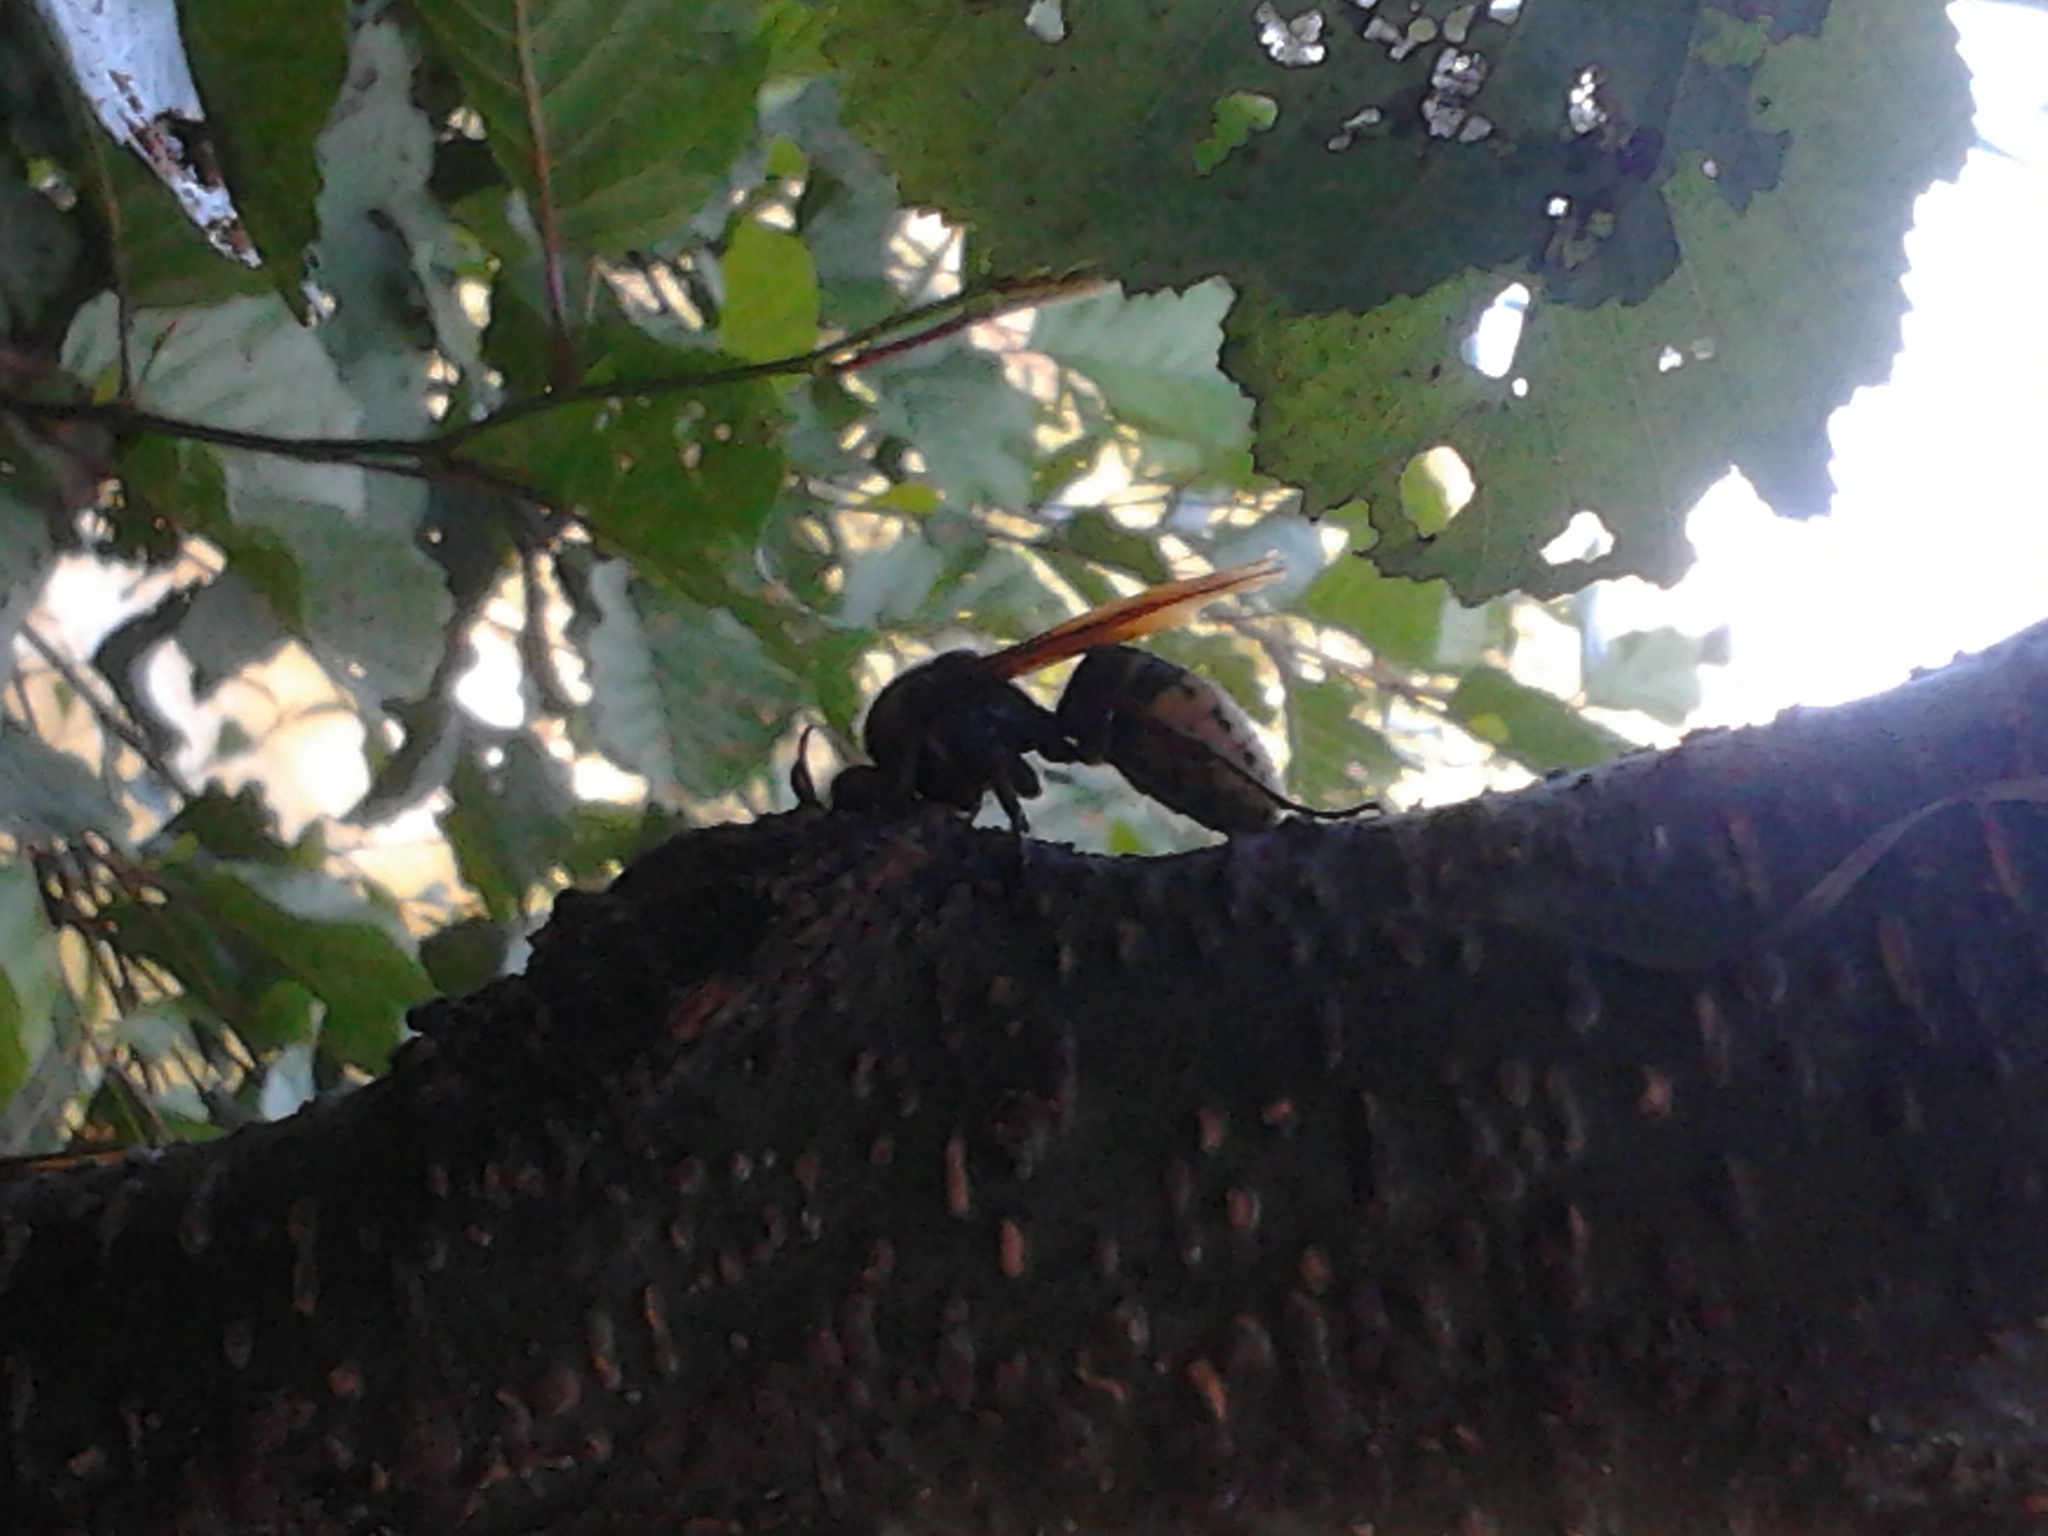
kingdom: Animalia
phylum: Arthropoda
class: Insecta
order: Hymenoptera
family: Vespidae
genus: Vespa
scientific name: Vespa crabro
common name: Hornet
